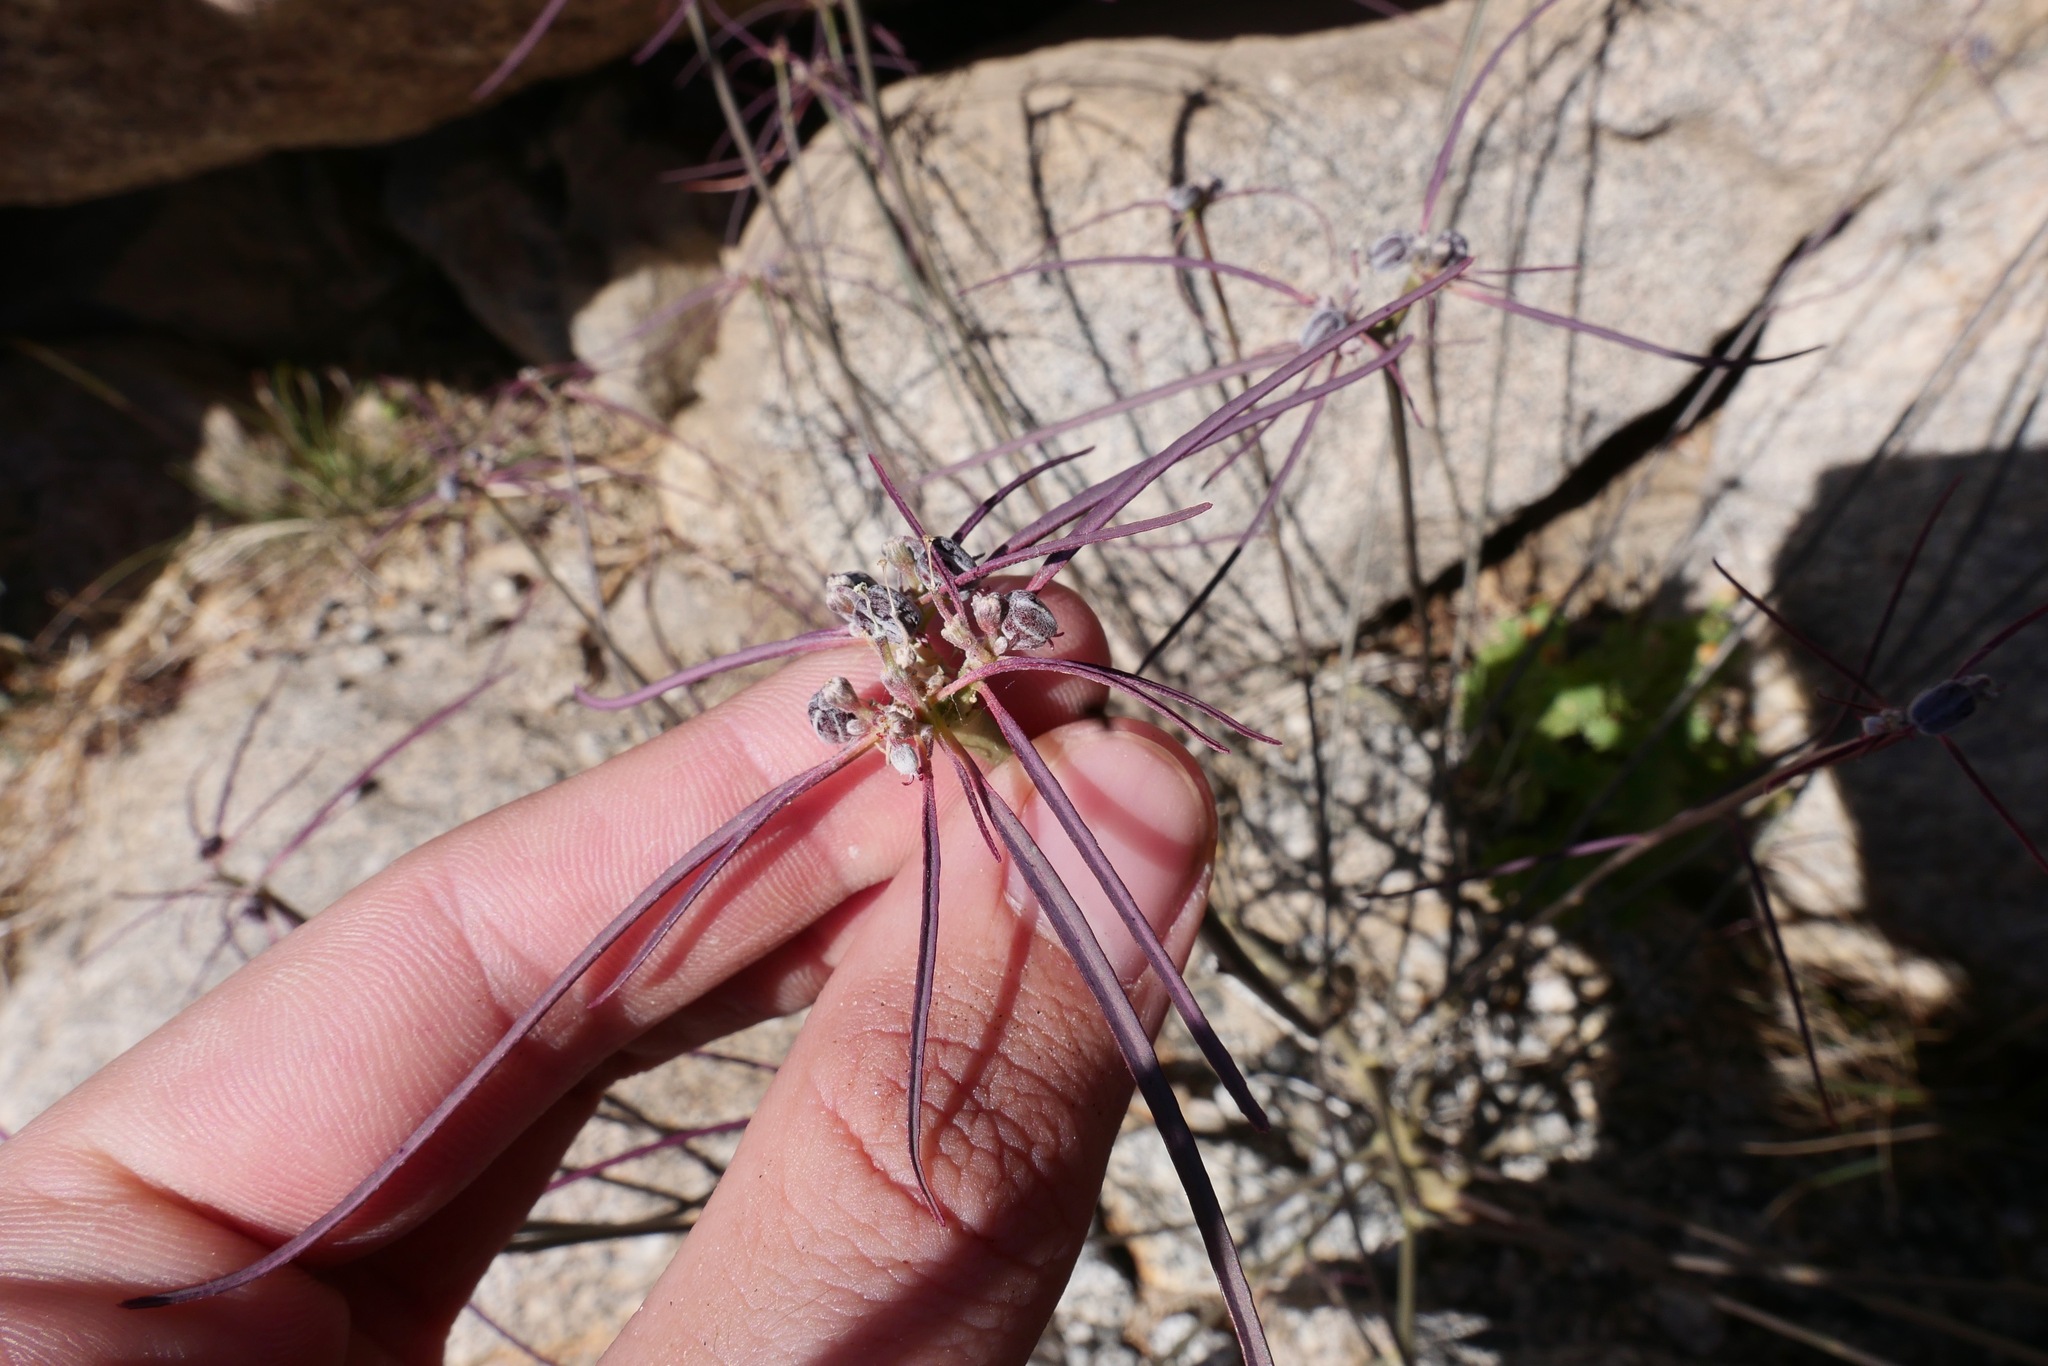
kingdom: Plantae
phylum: Tracheophyta
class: Magnoliopsida
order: Malpighiales
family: Euphorbiaceae
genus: Euphorbia
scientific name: Euphorbia eriantha
